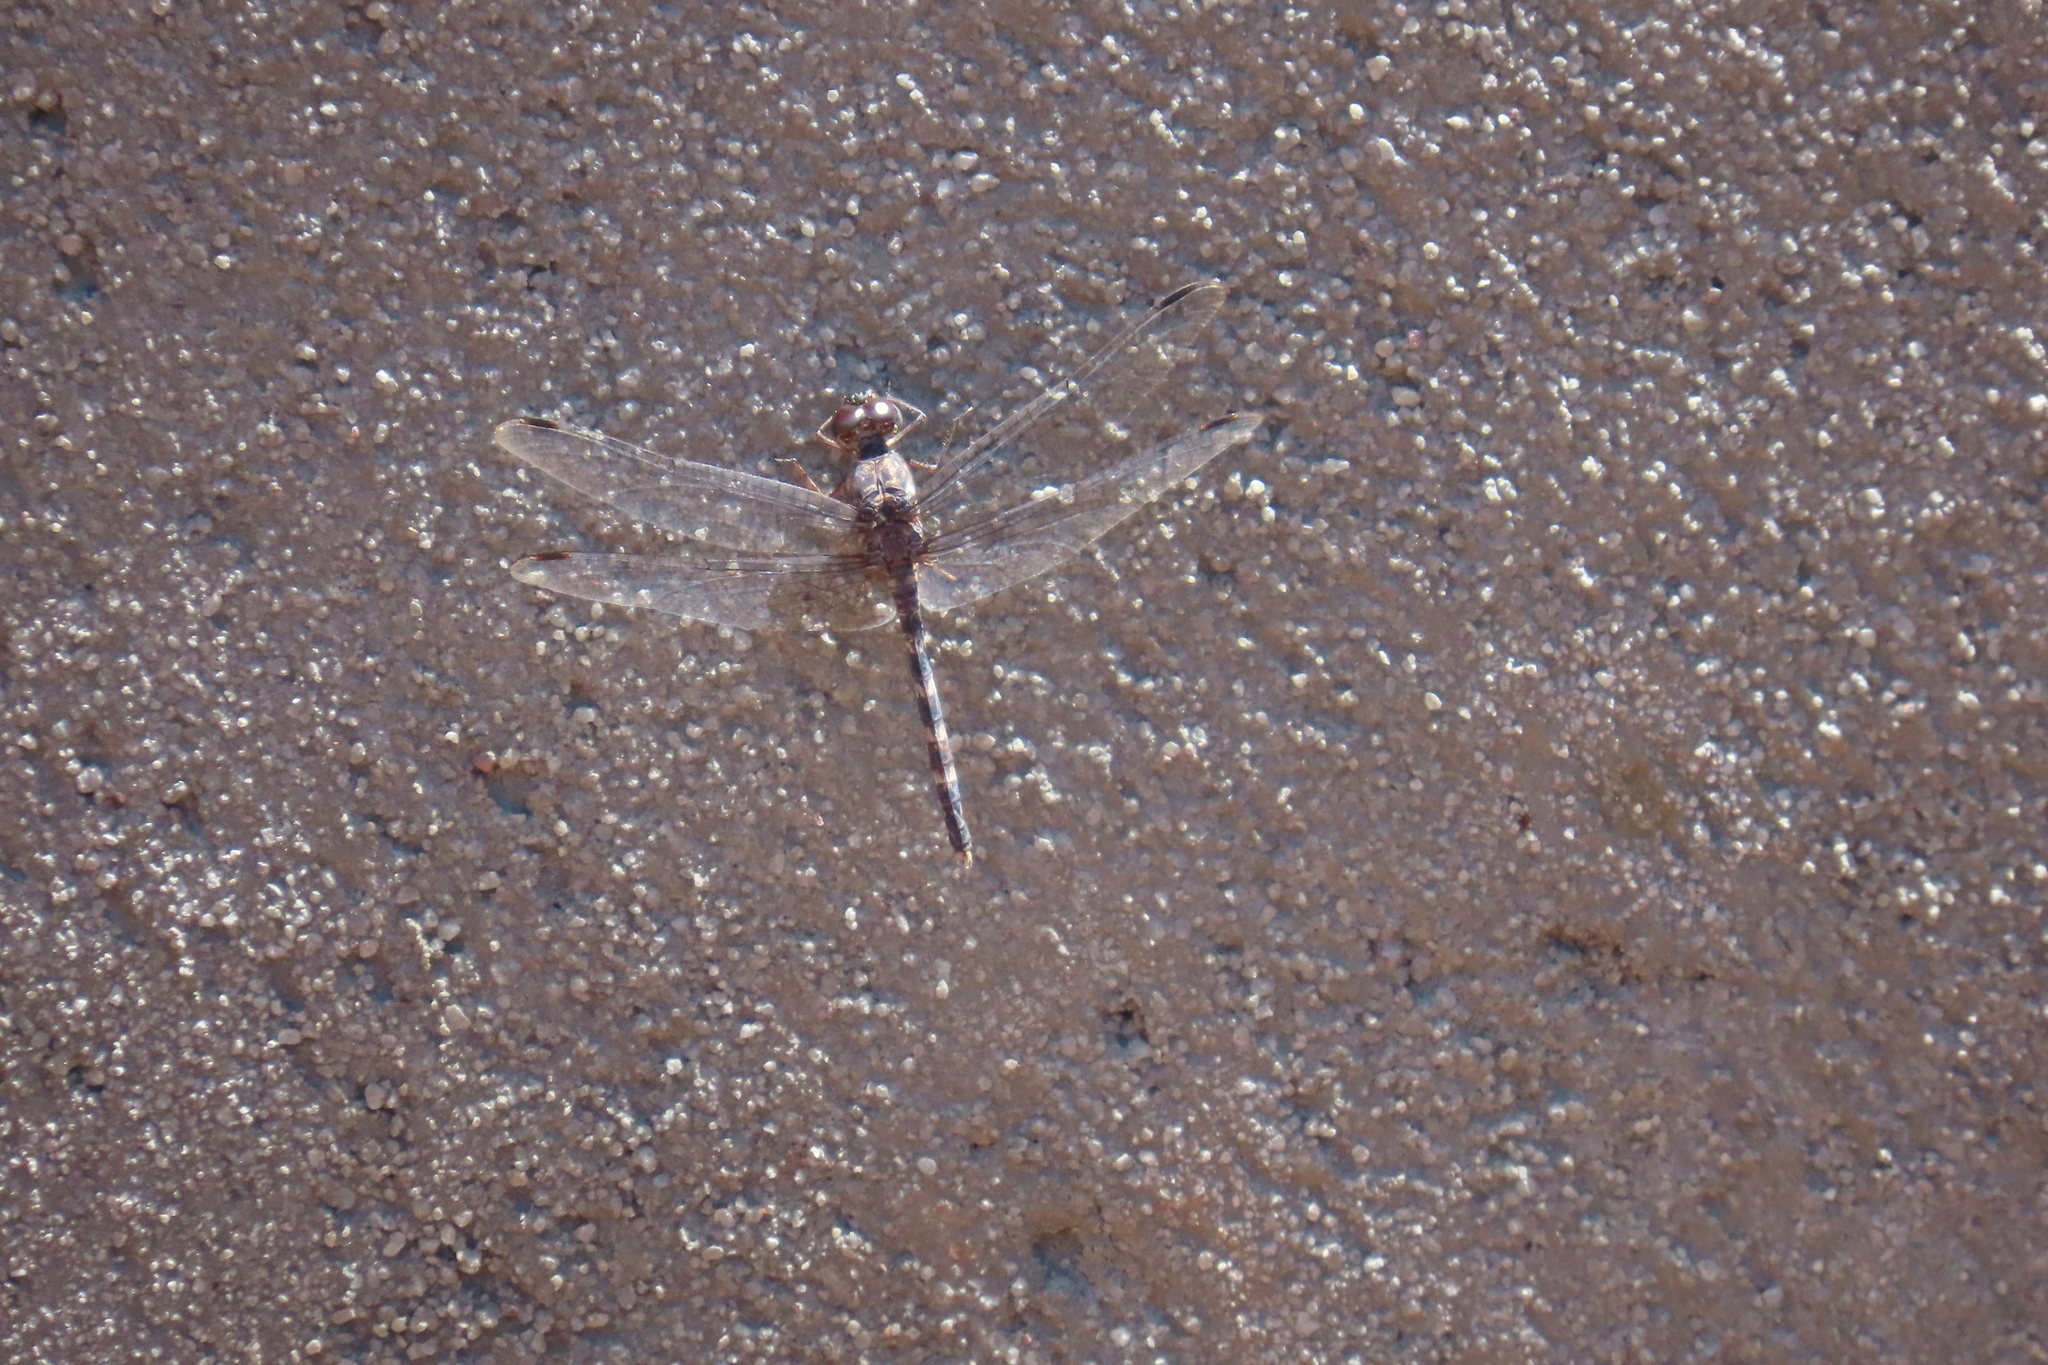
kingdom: Animalia
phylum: Arthropoda
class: Insecta
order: Odonata
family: Libellulidae
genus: Bradinopyga
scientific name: Bradinopyga geminata
